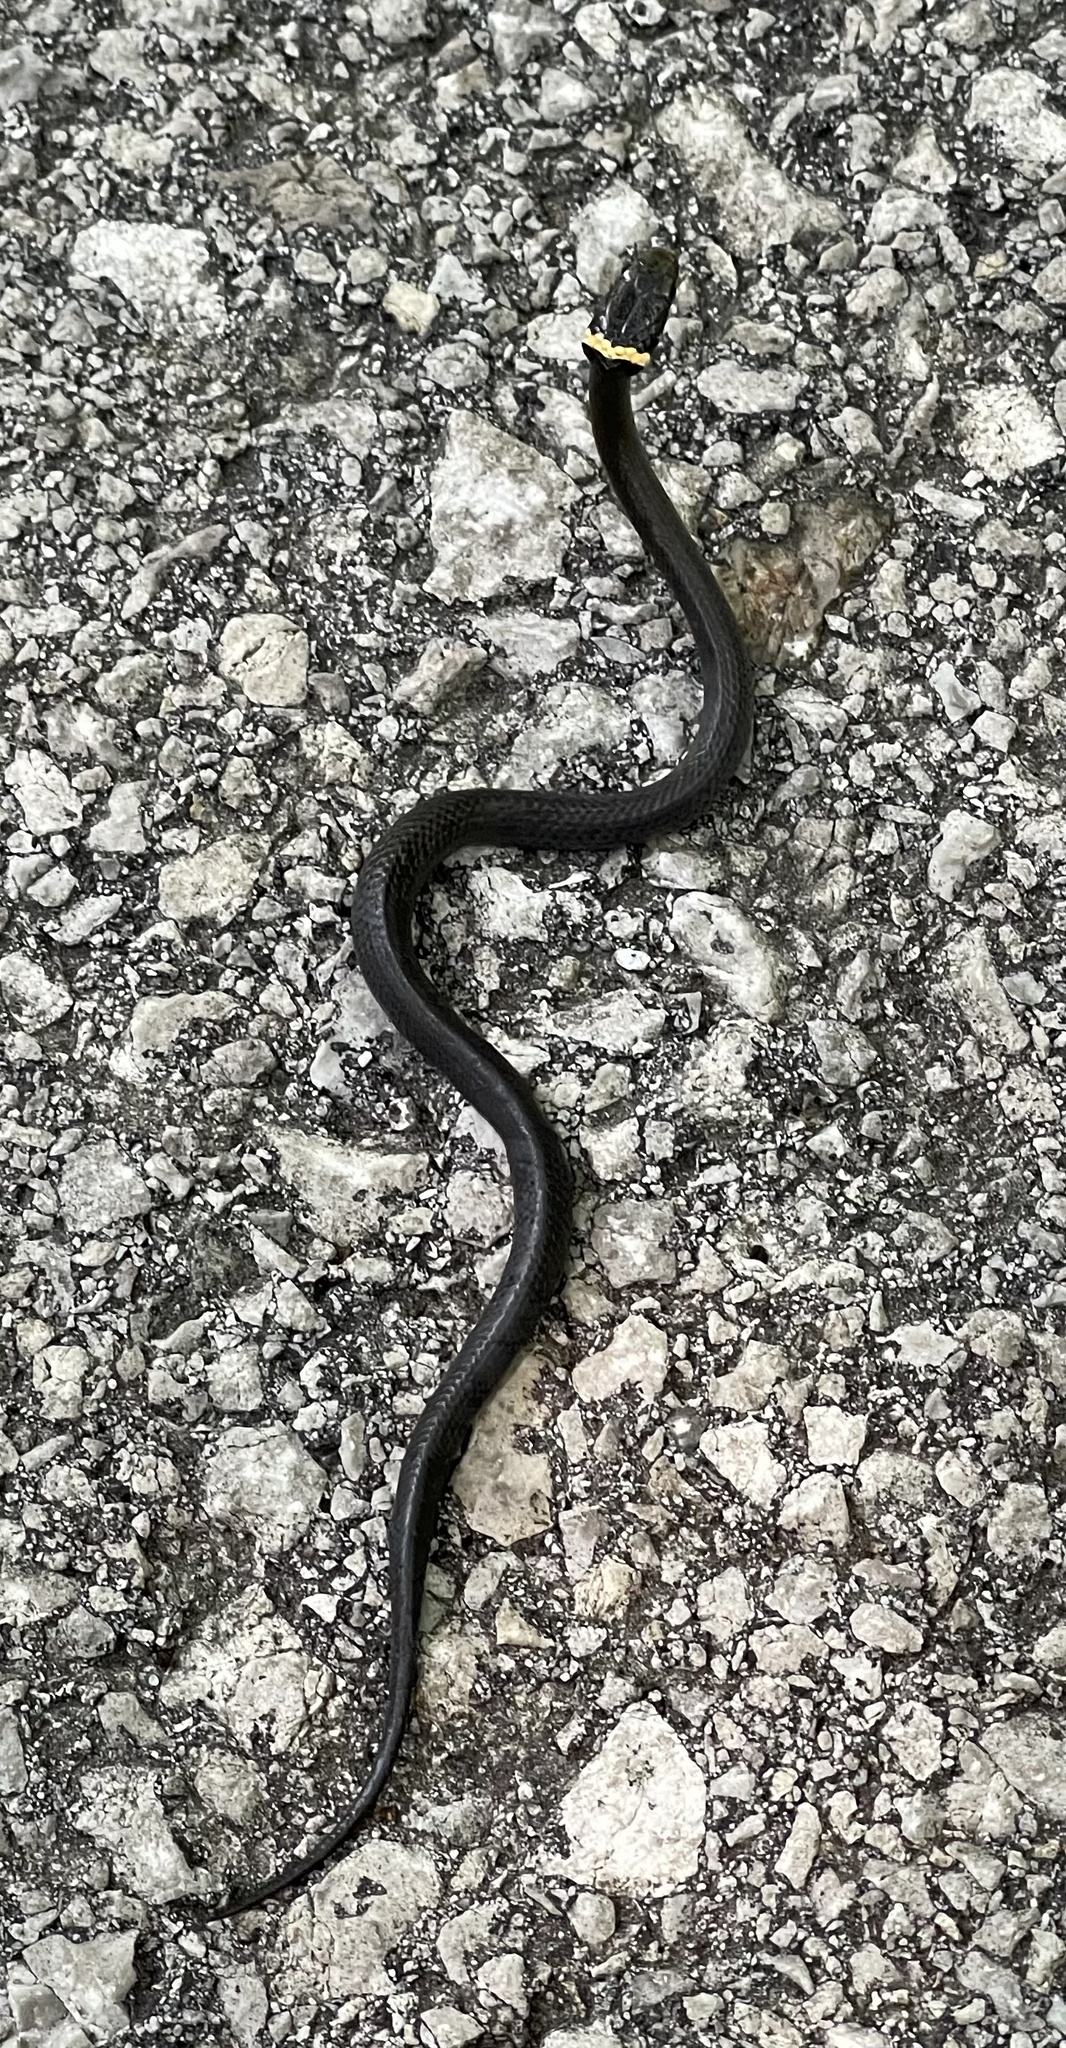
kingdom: Animalia
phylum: Chordata
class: Squamata
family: Colubridae
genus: Diadophis
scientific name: Diadophis punctatus
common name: Ringneck snake
